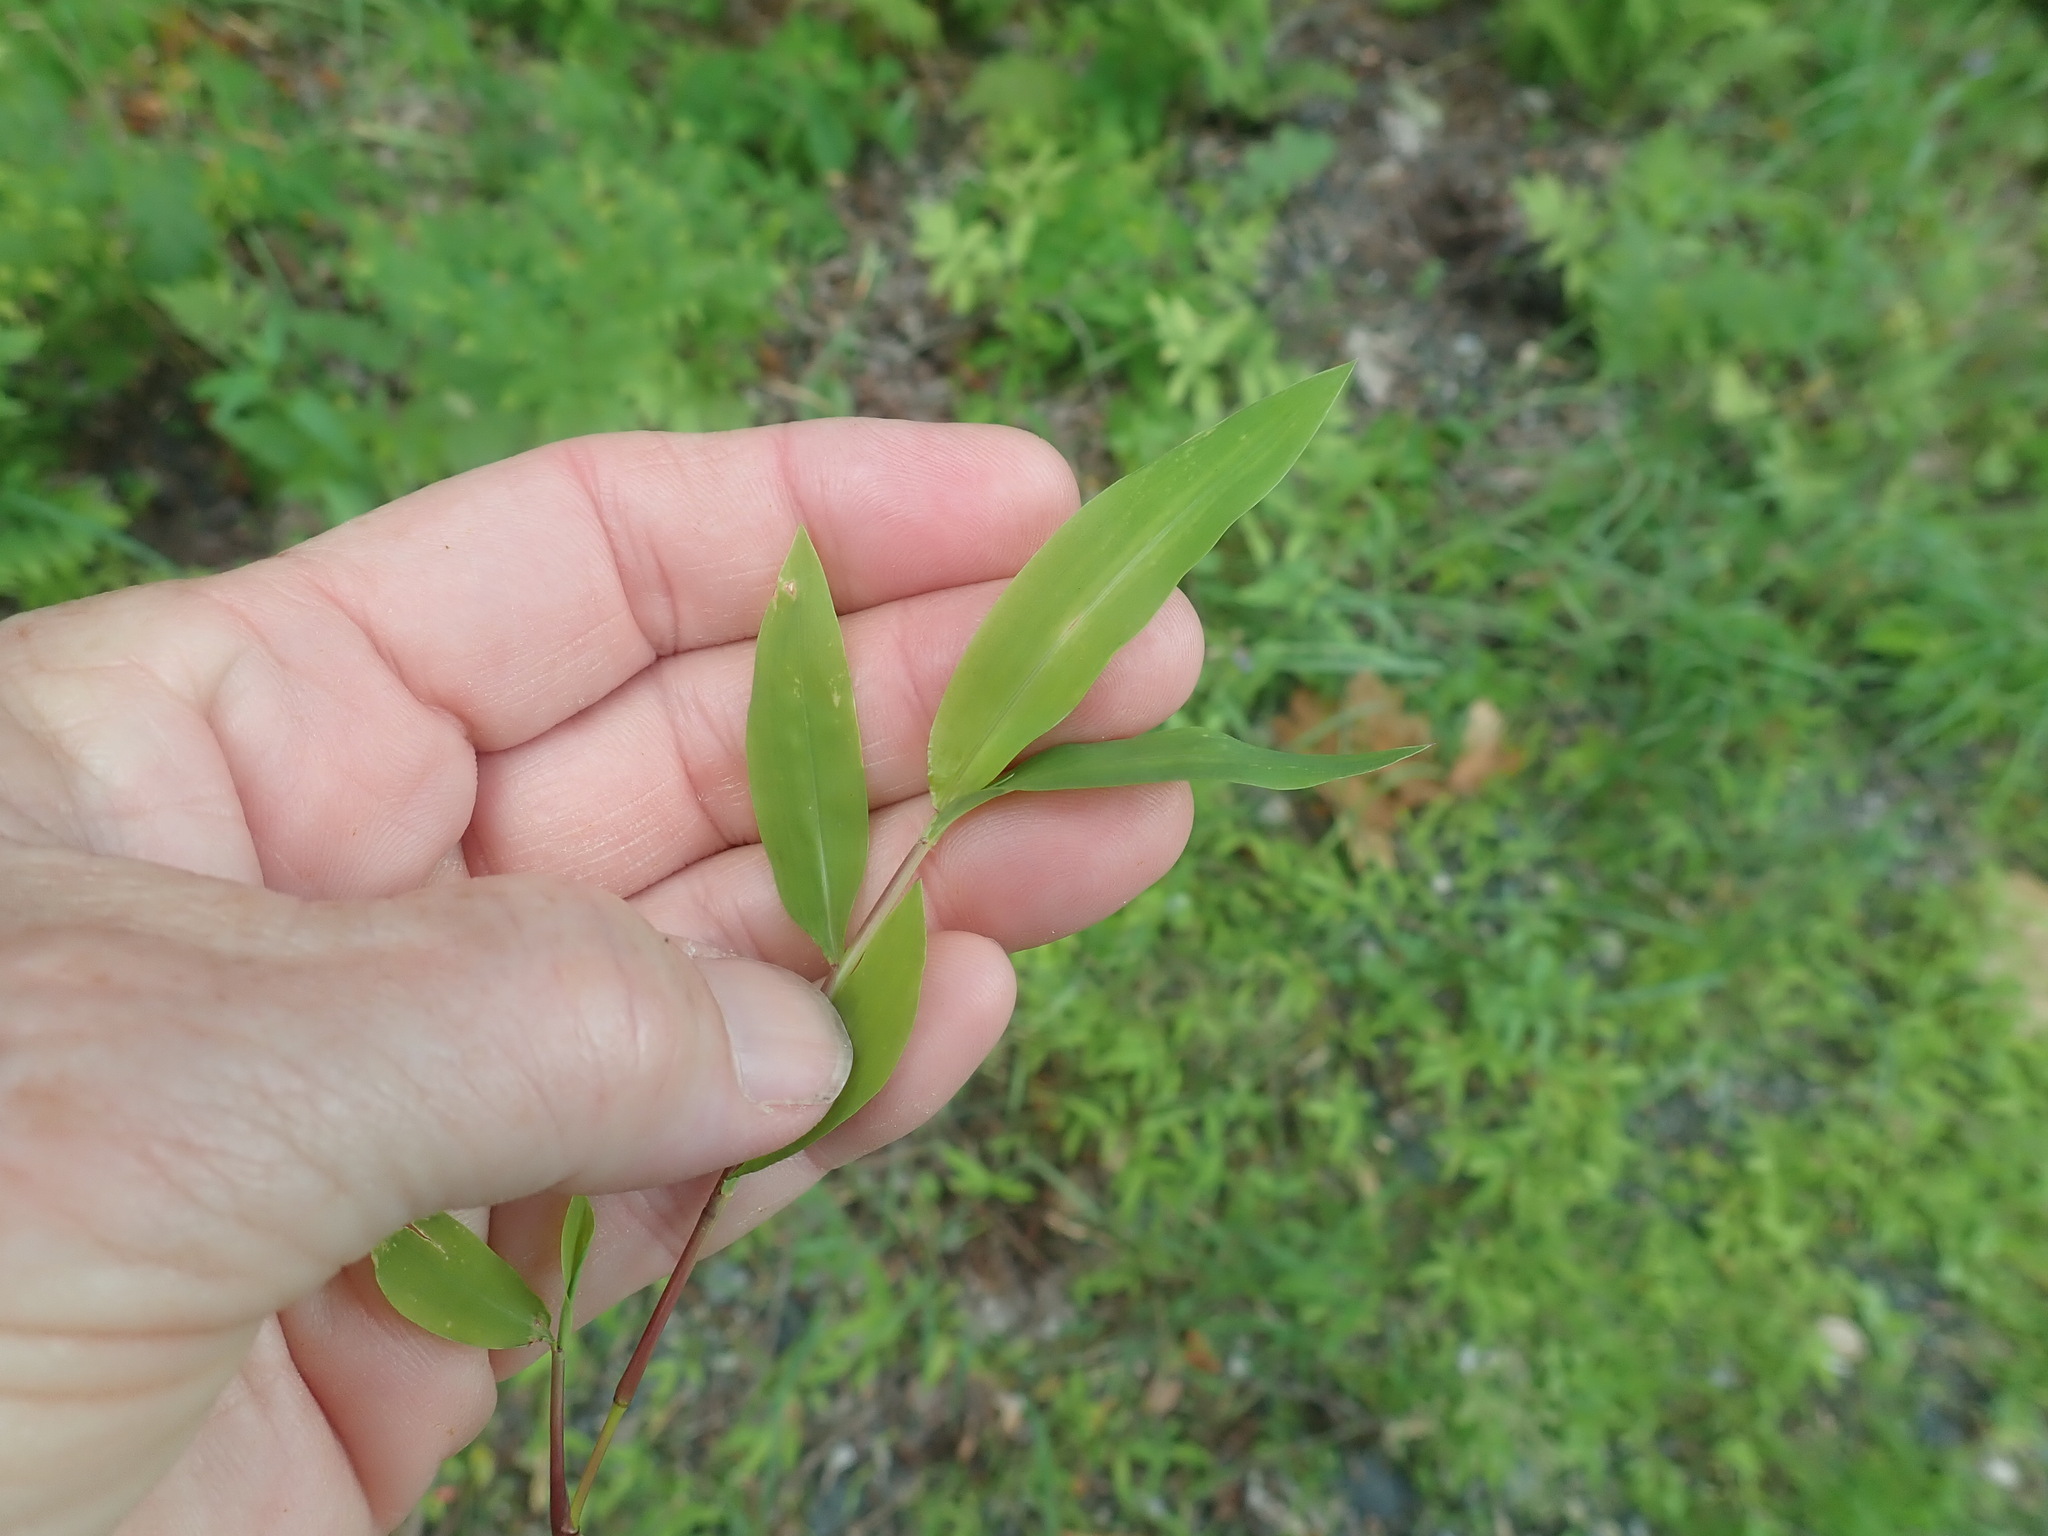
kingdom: Plantae
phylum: Tracheophyta
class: Liliopsida
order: Poales
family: Poaceae
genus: Microstegium
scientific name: Microstegium vimineum
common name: Japanese stiltgrass
